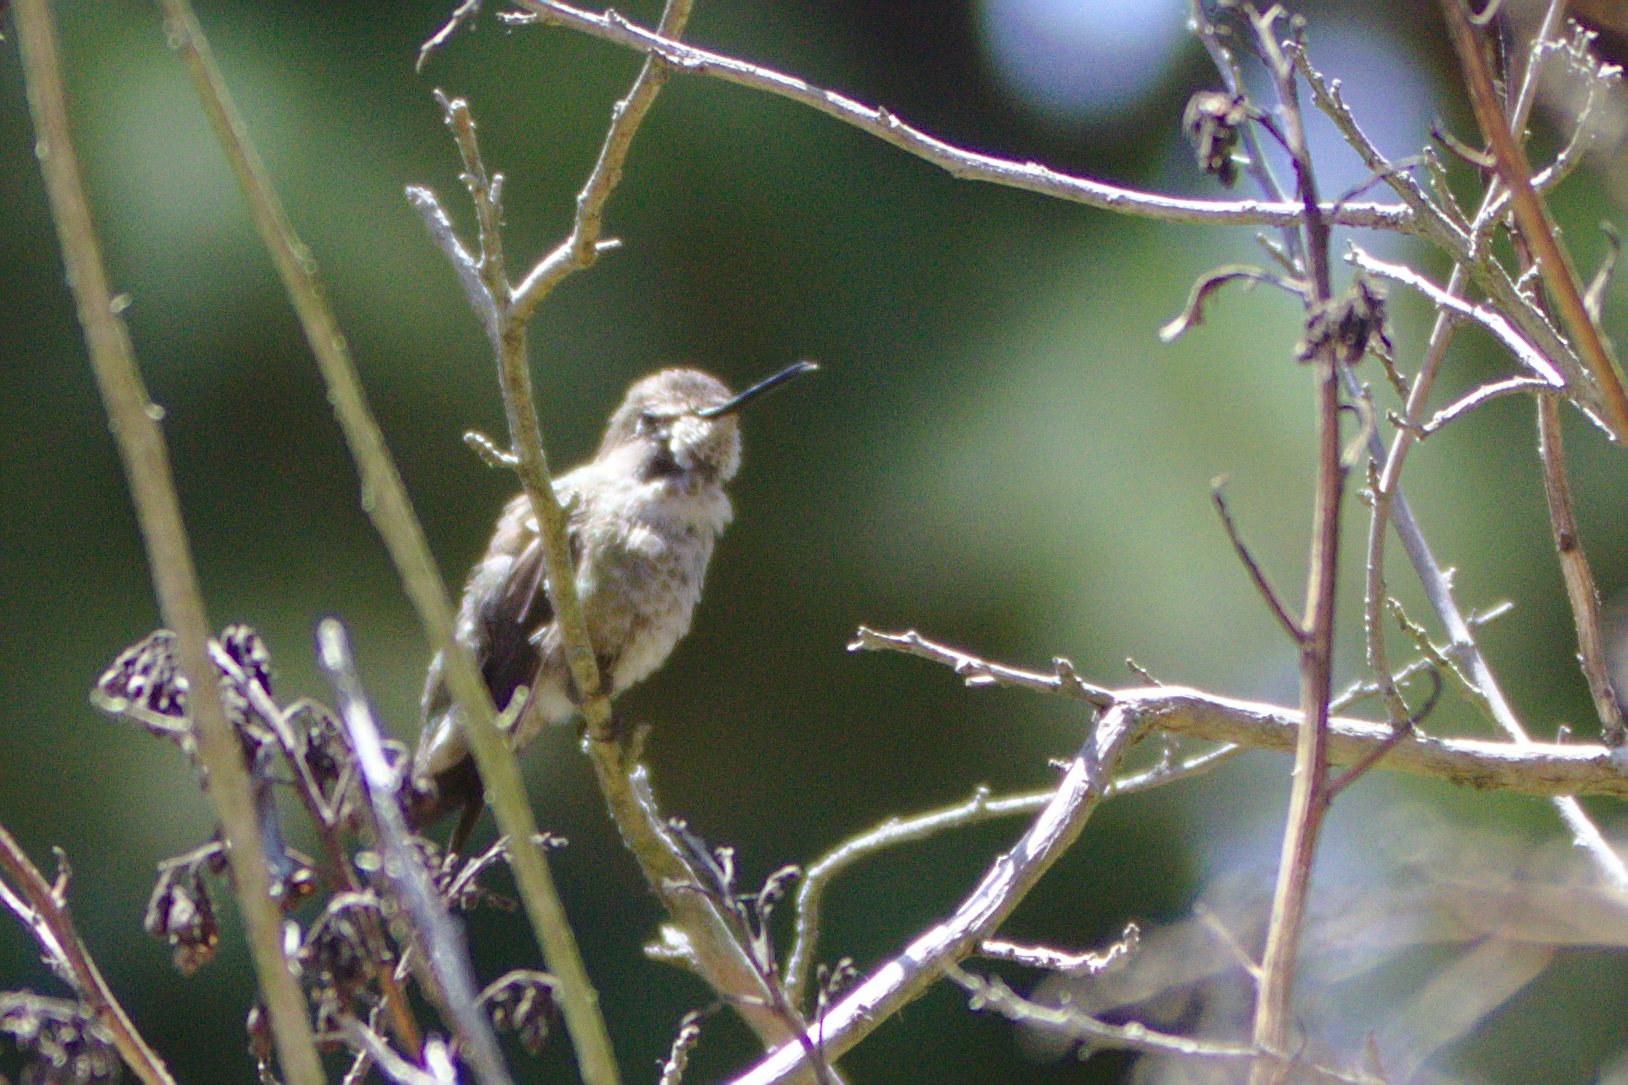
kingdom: Animalia
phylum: Chordata
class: Aves
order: Apodiformes
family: Trochilidae
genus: Calypte
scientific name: Calypte anna
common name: Anna's hummingbird
